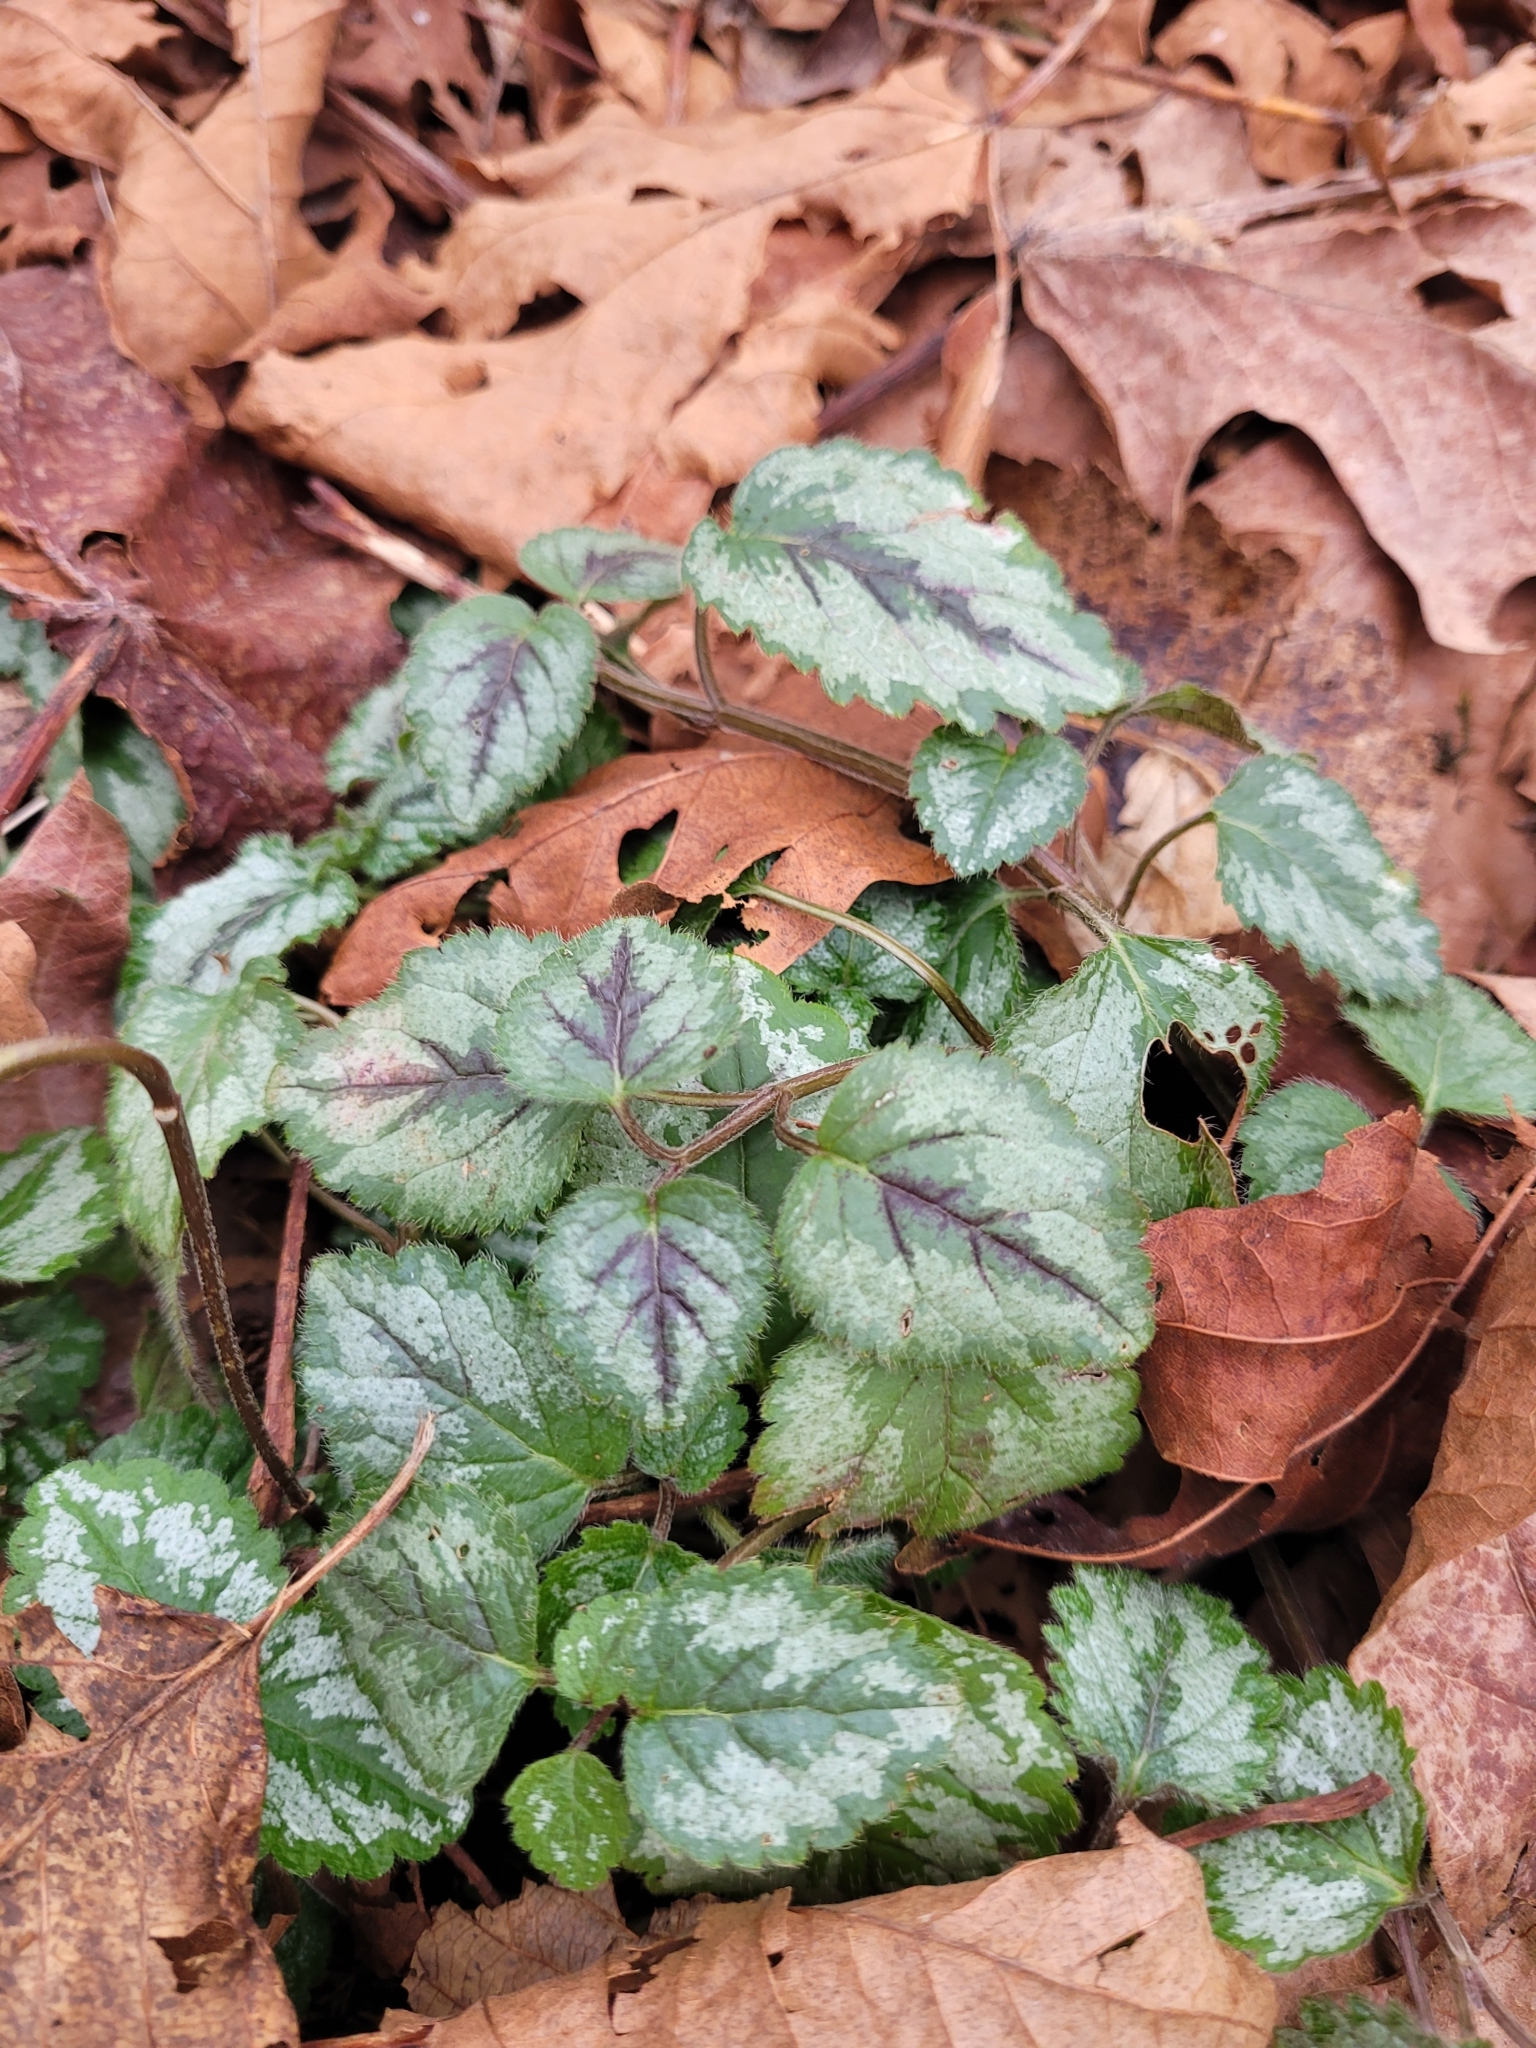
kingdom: Plantae
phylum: Tracheophyta
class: Magnoliopsida
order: Lamiales
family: Lamiaceae
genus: Lamium
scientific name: Lamium galeobdolon
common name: Yellow archangel
